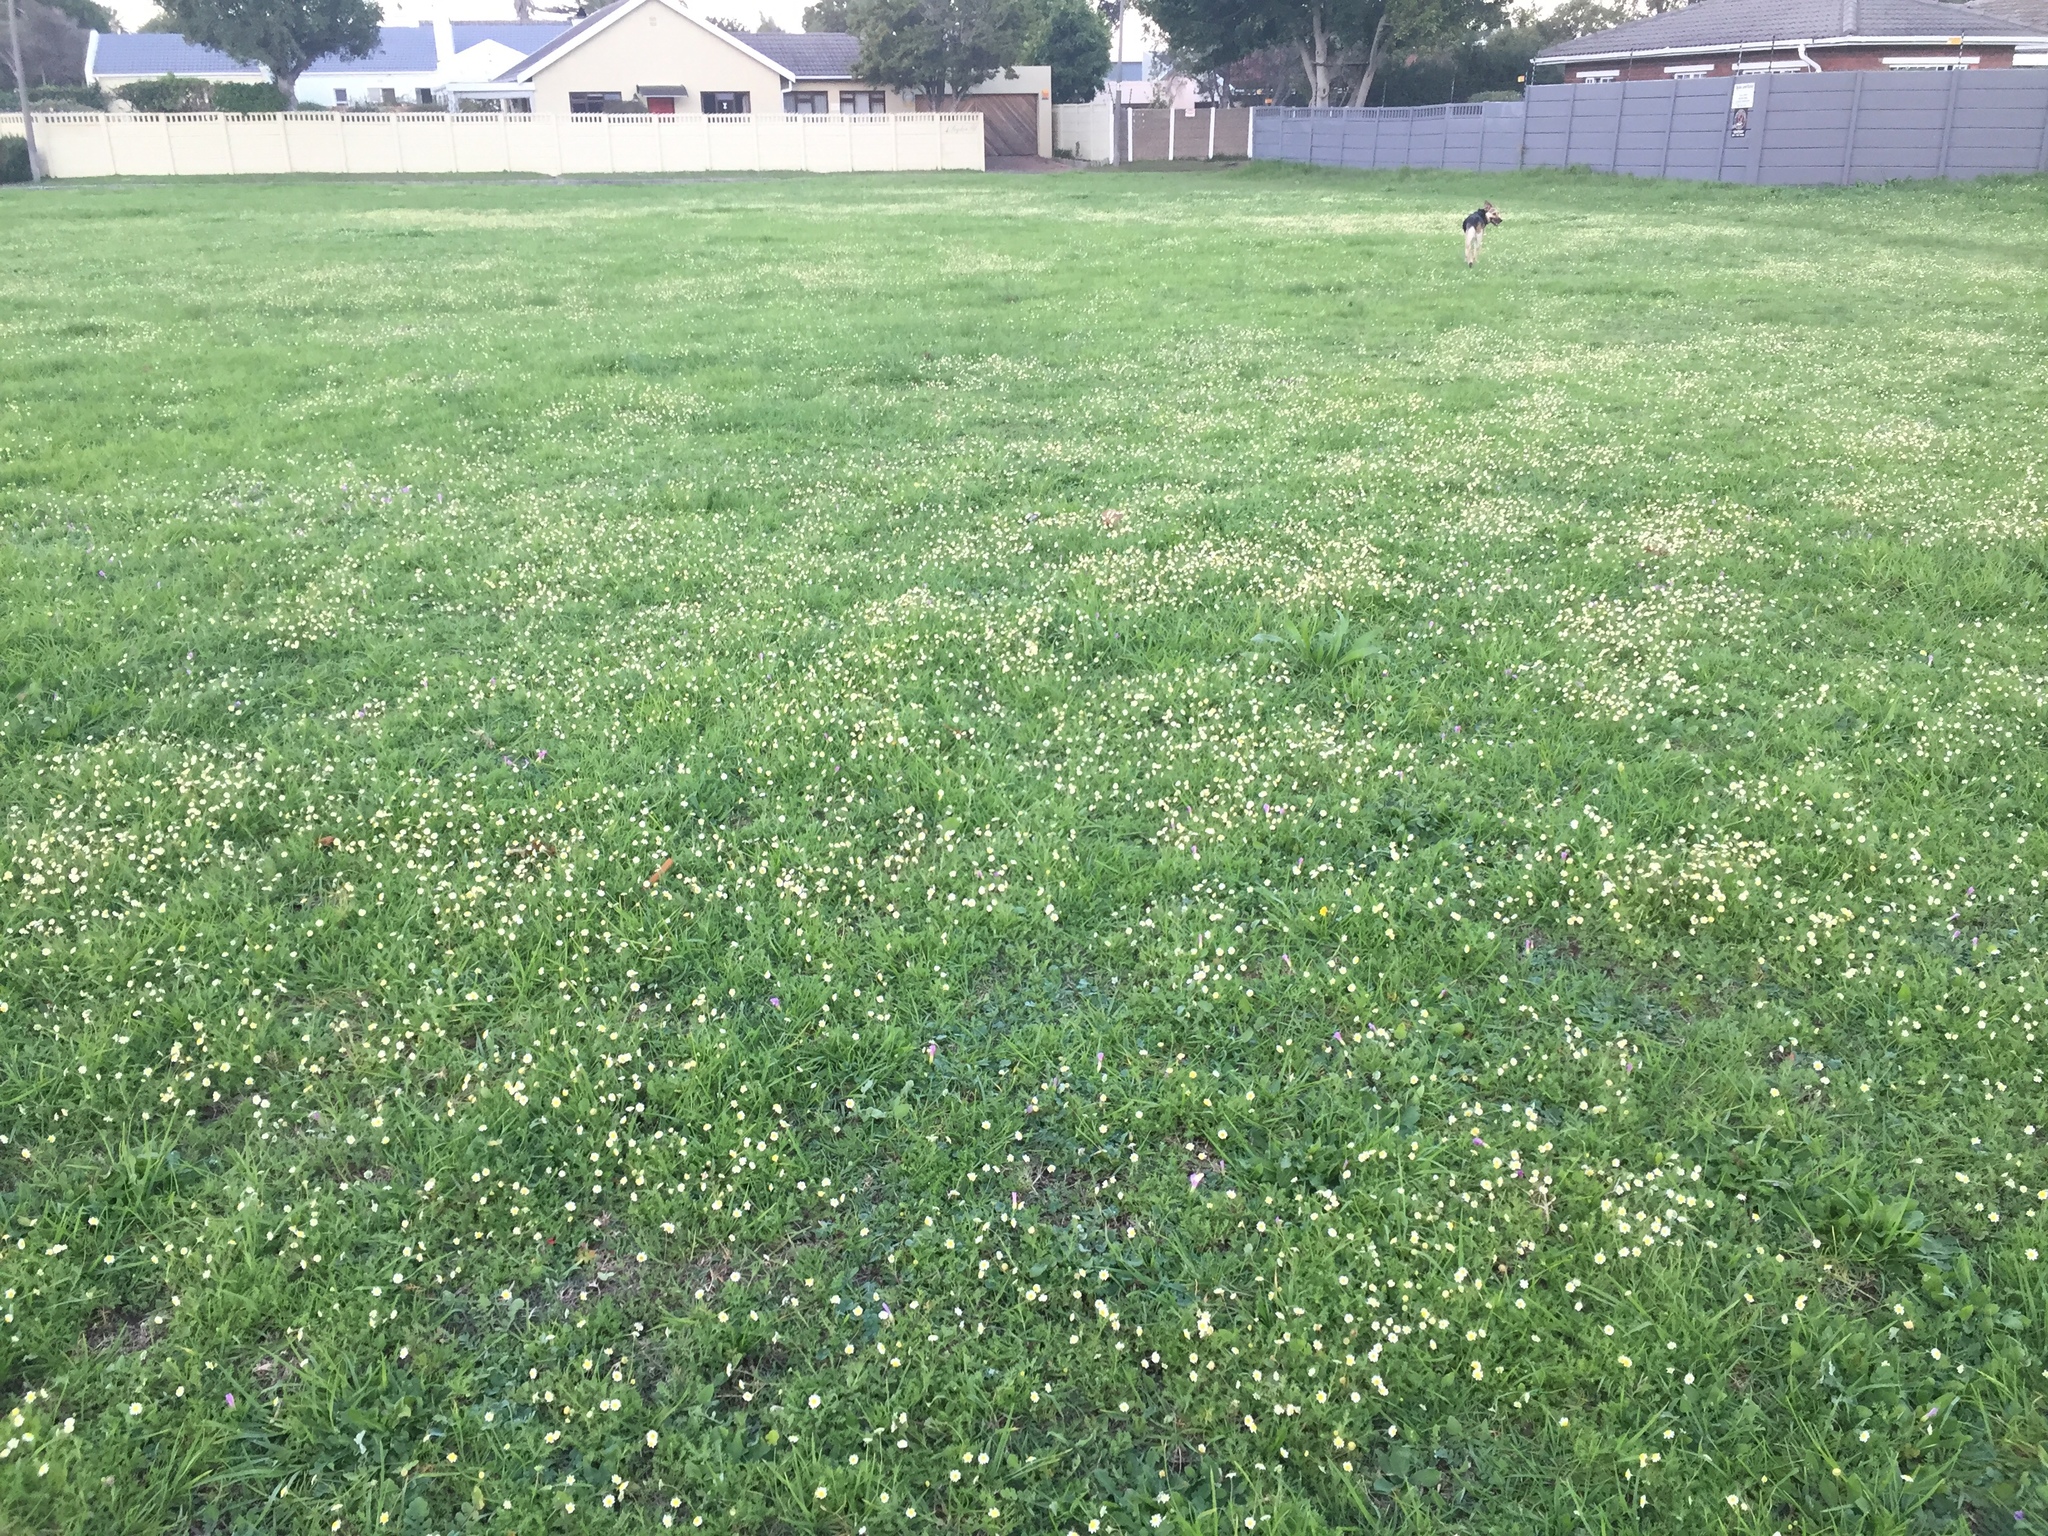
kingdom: Plantae
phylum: Tracheophyta
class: Magnoliopsida
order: Asterales
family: Asteraceae
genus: Cotula
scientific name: Cotula turbinata
